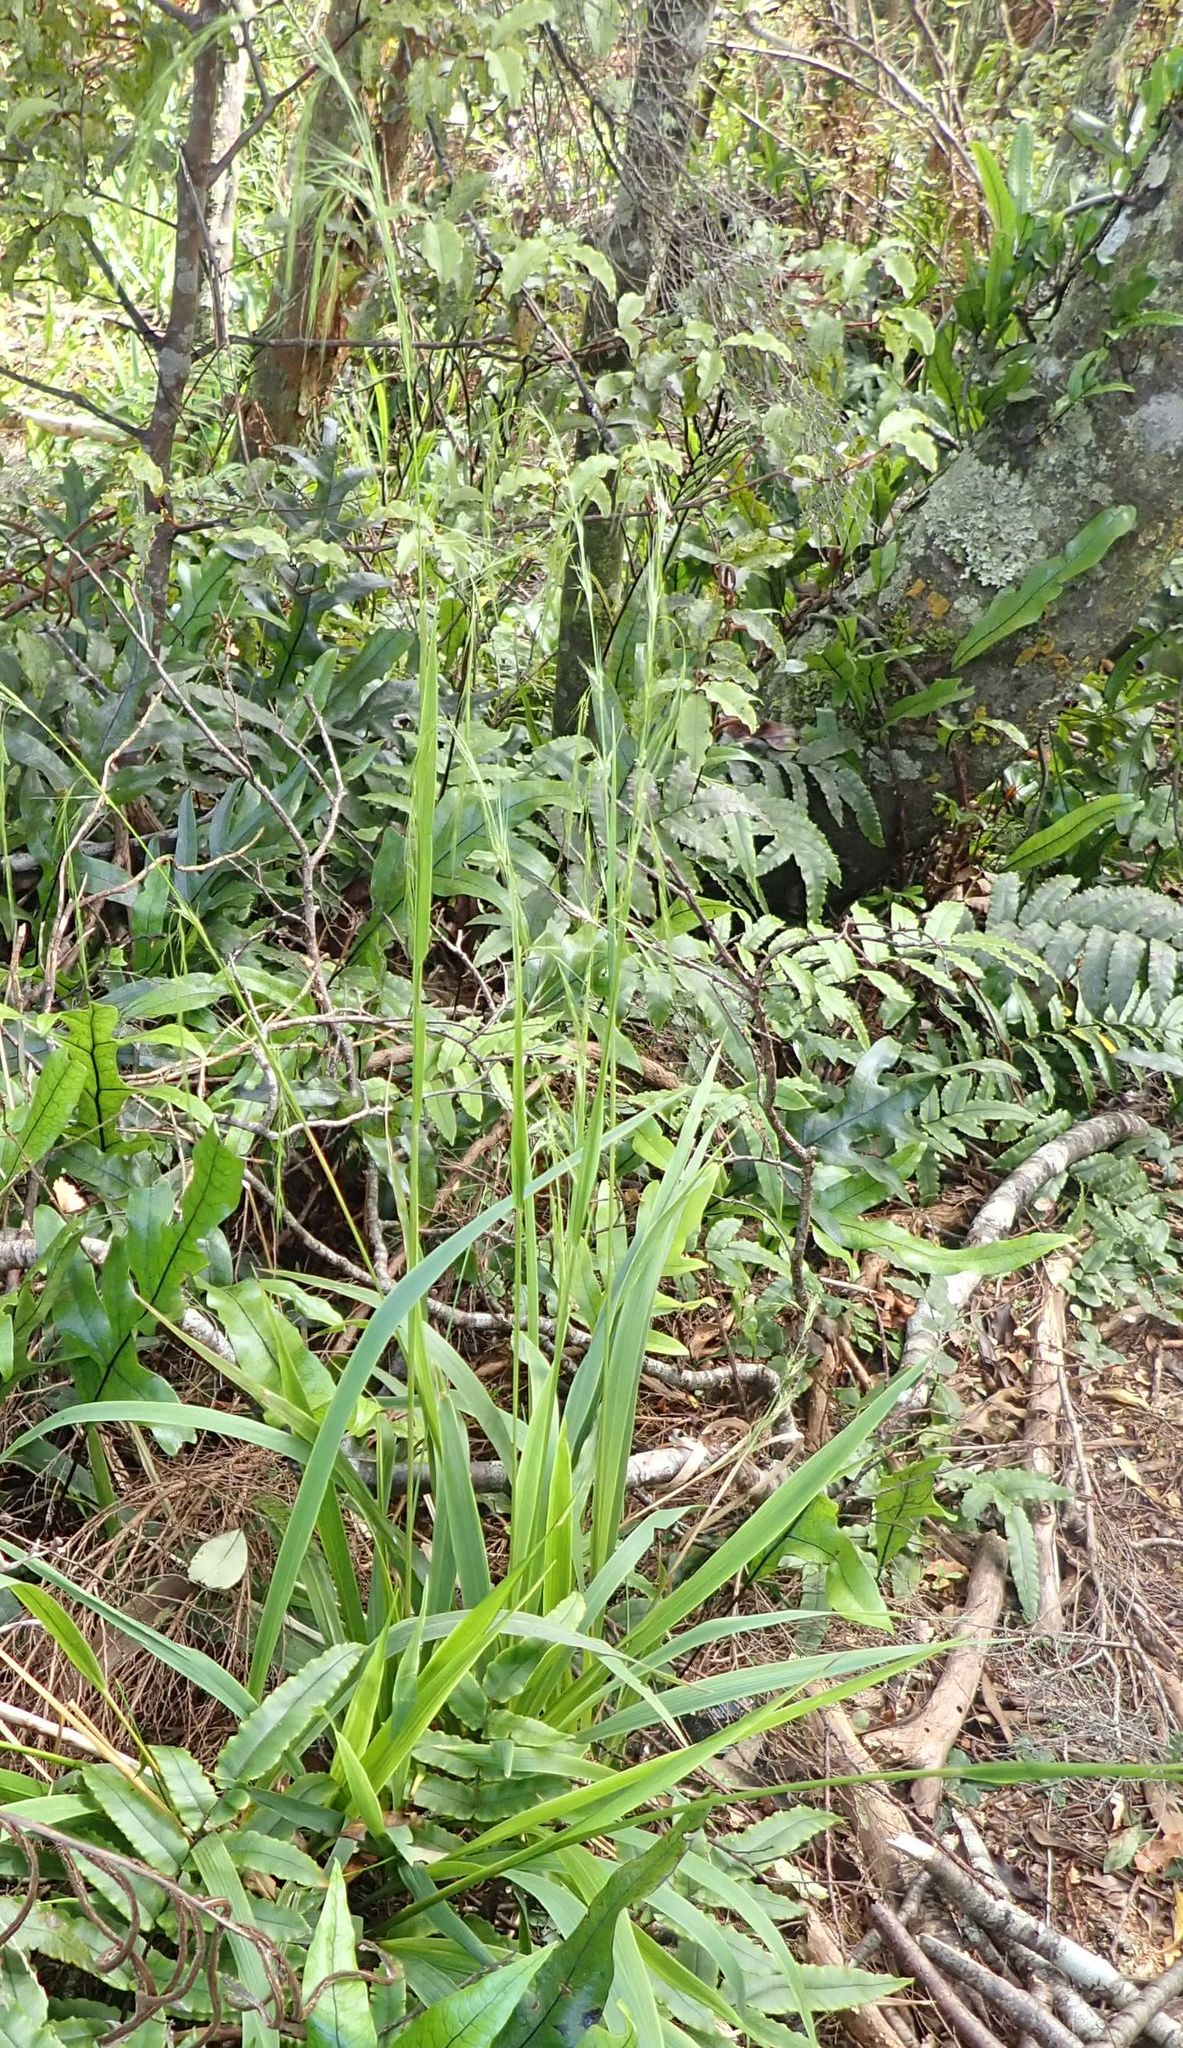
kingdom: Plantae
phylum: Tracheophyta
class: Liliopsida
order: Poales
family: Poaceae
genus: Ehrharta
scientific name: Ehrharta diplax
